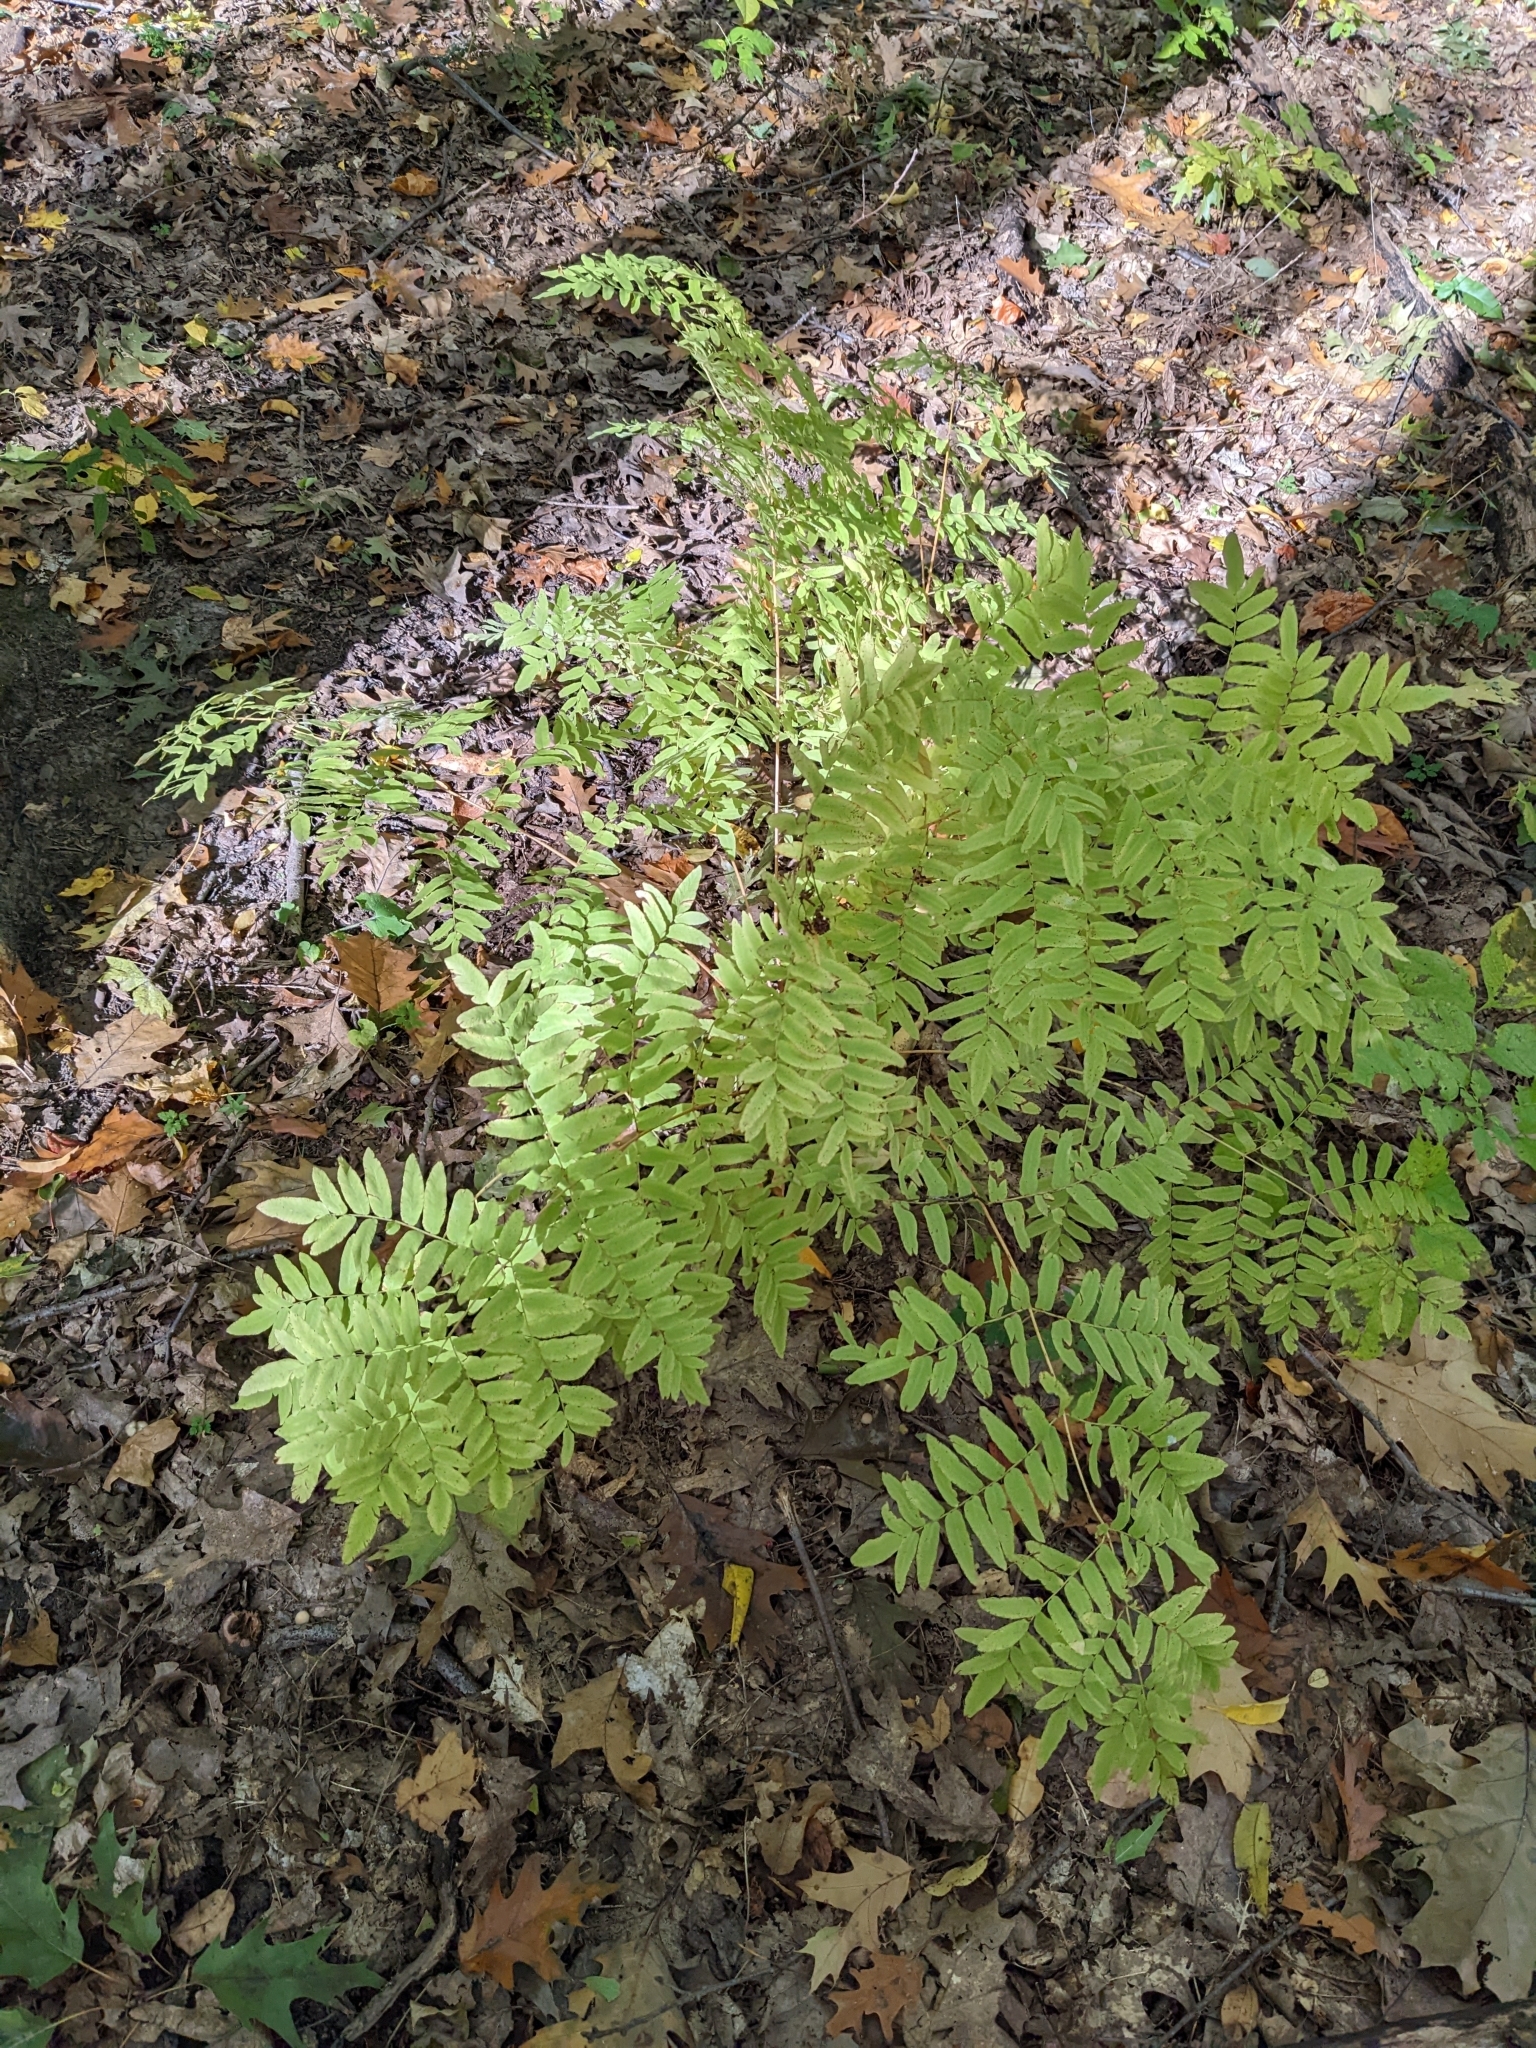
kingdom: Plantae
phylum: Tracheophyta
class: Polypodiopsida
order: Osmundales
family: Osmundaceae
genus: Osmunda
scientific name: Osmunda spectabilis
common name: American royal fern
